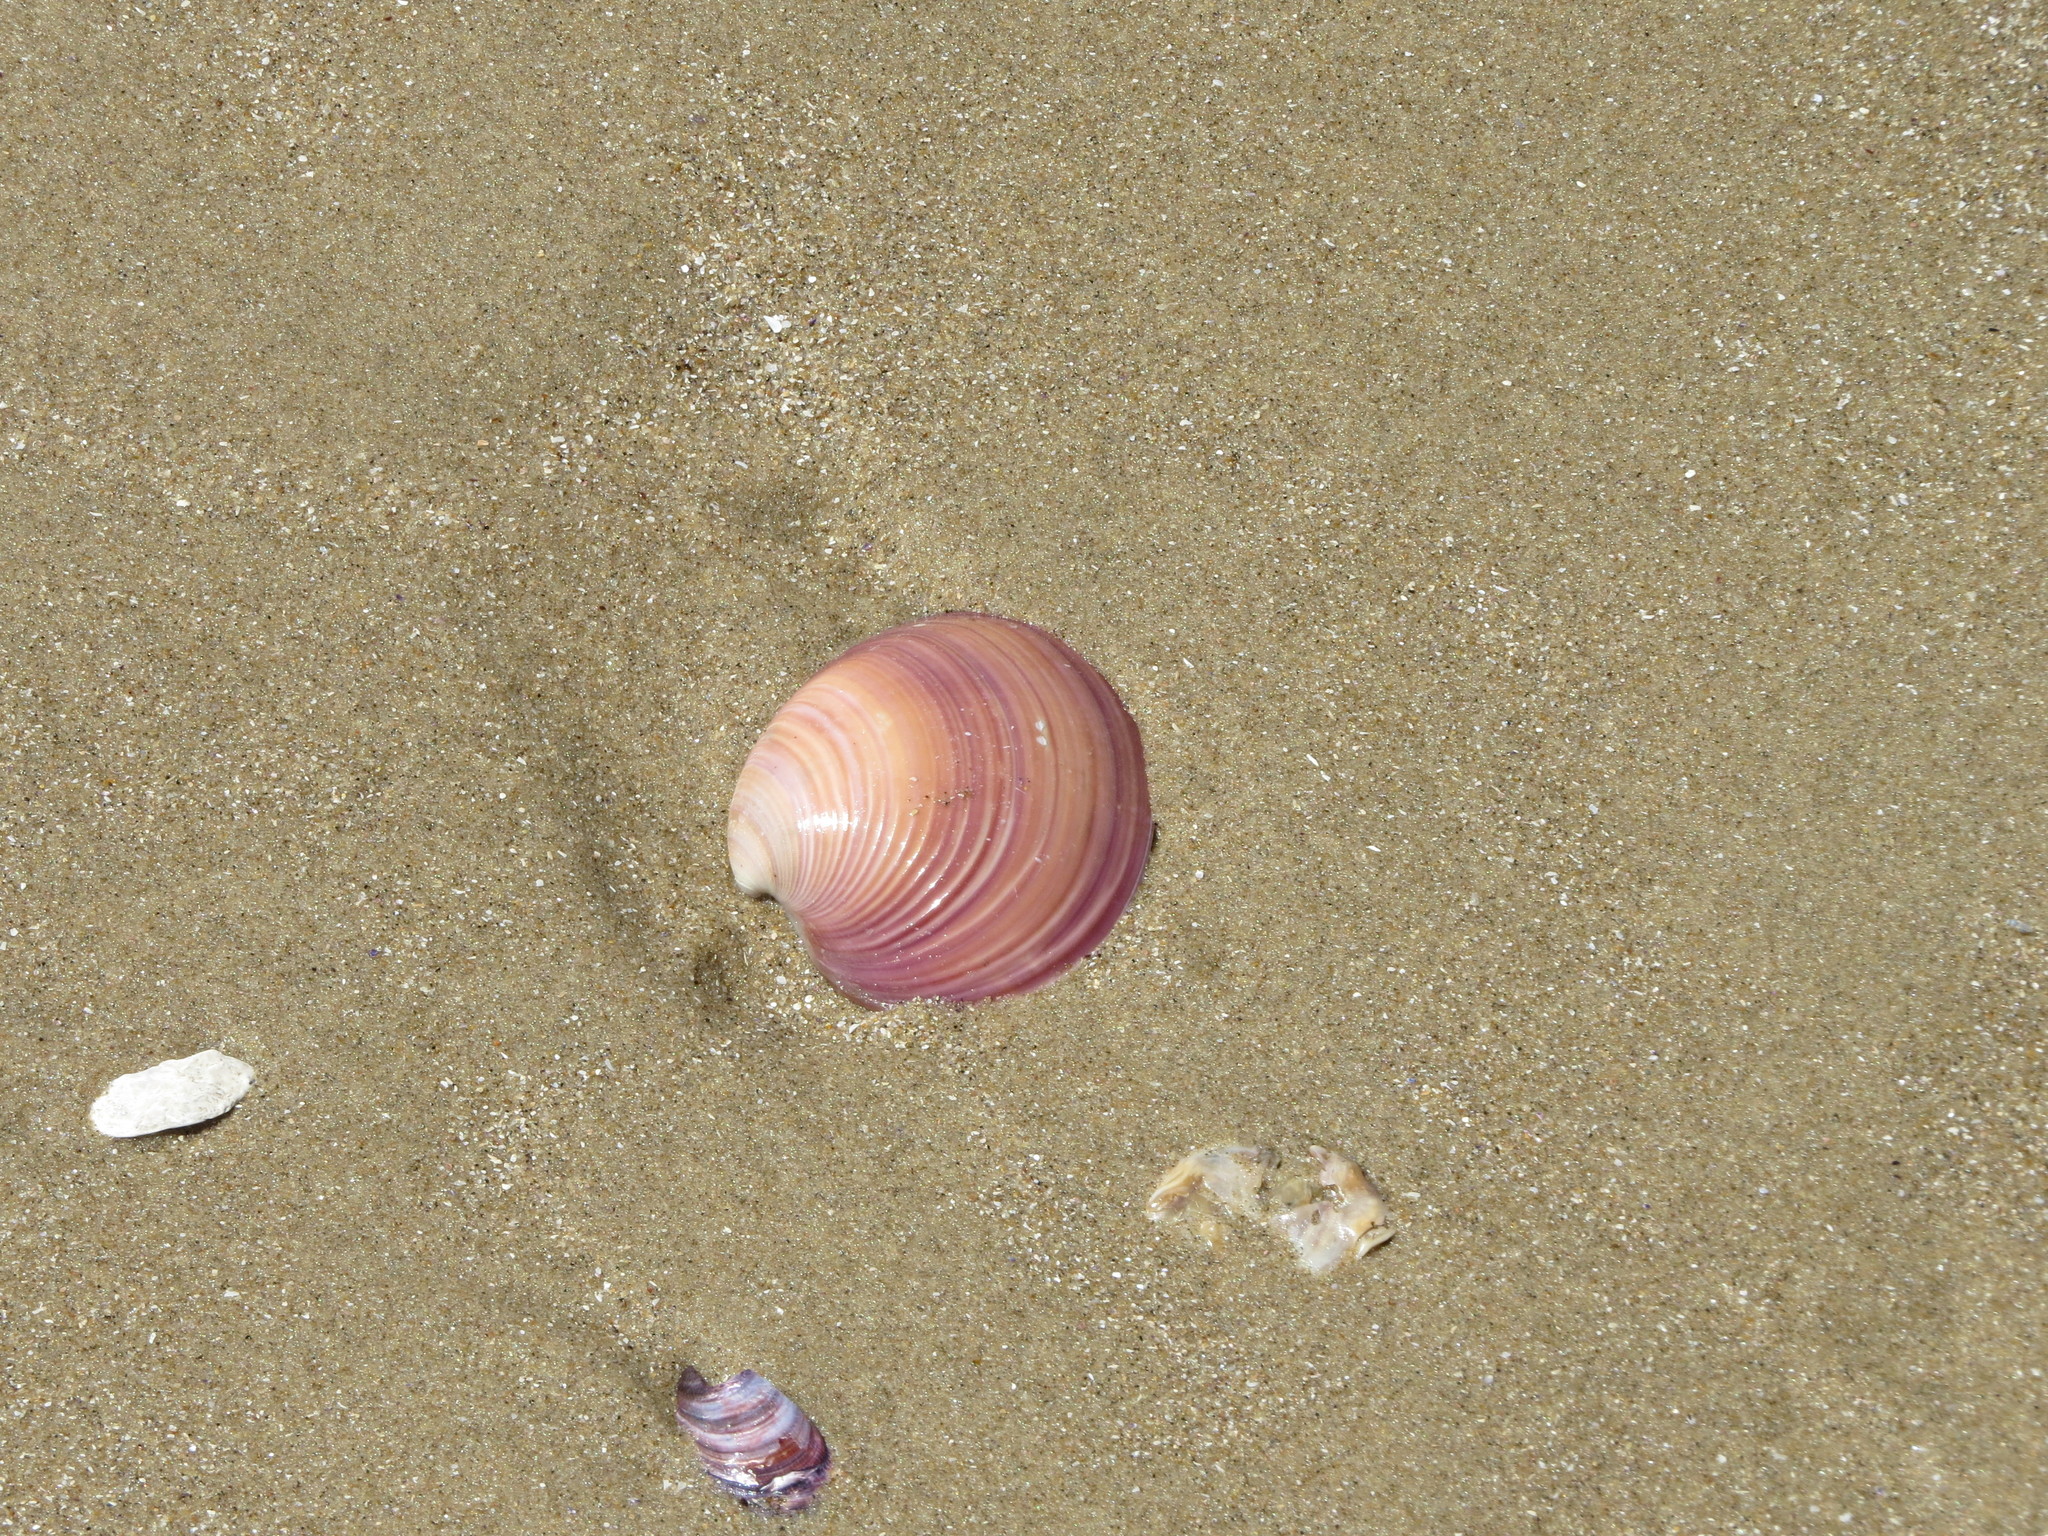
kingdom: Animalia
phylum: Mollusca
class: Bivalvia
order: Venerida
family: Veneridae
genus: Eucallista
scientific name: Eucallista purpurata
